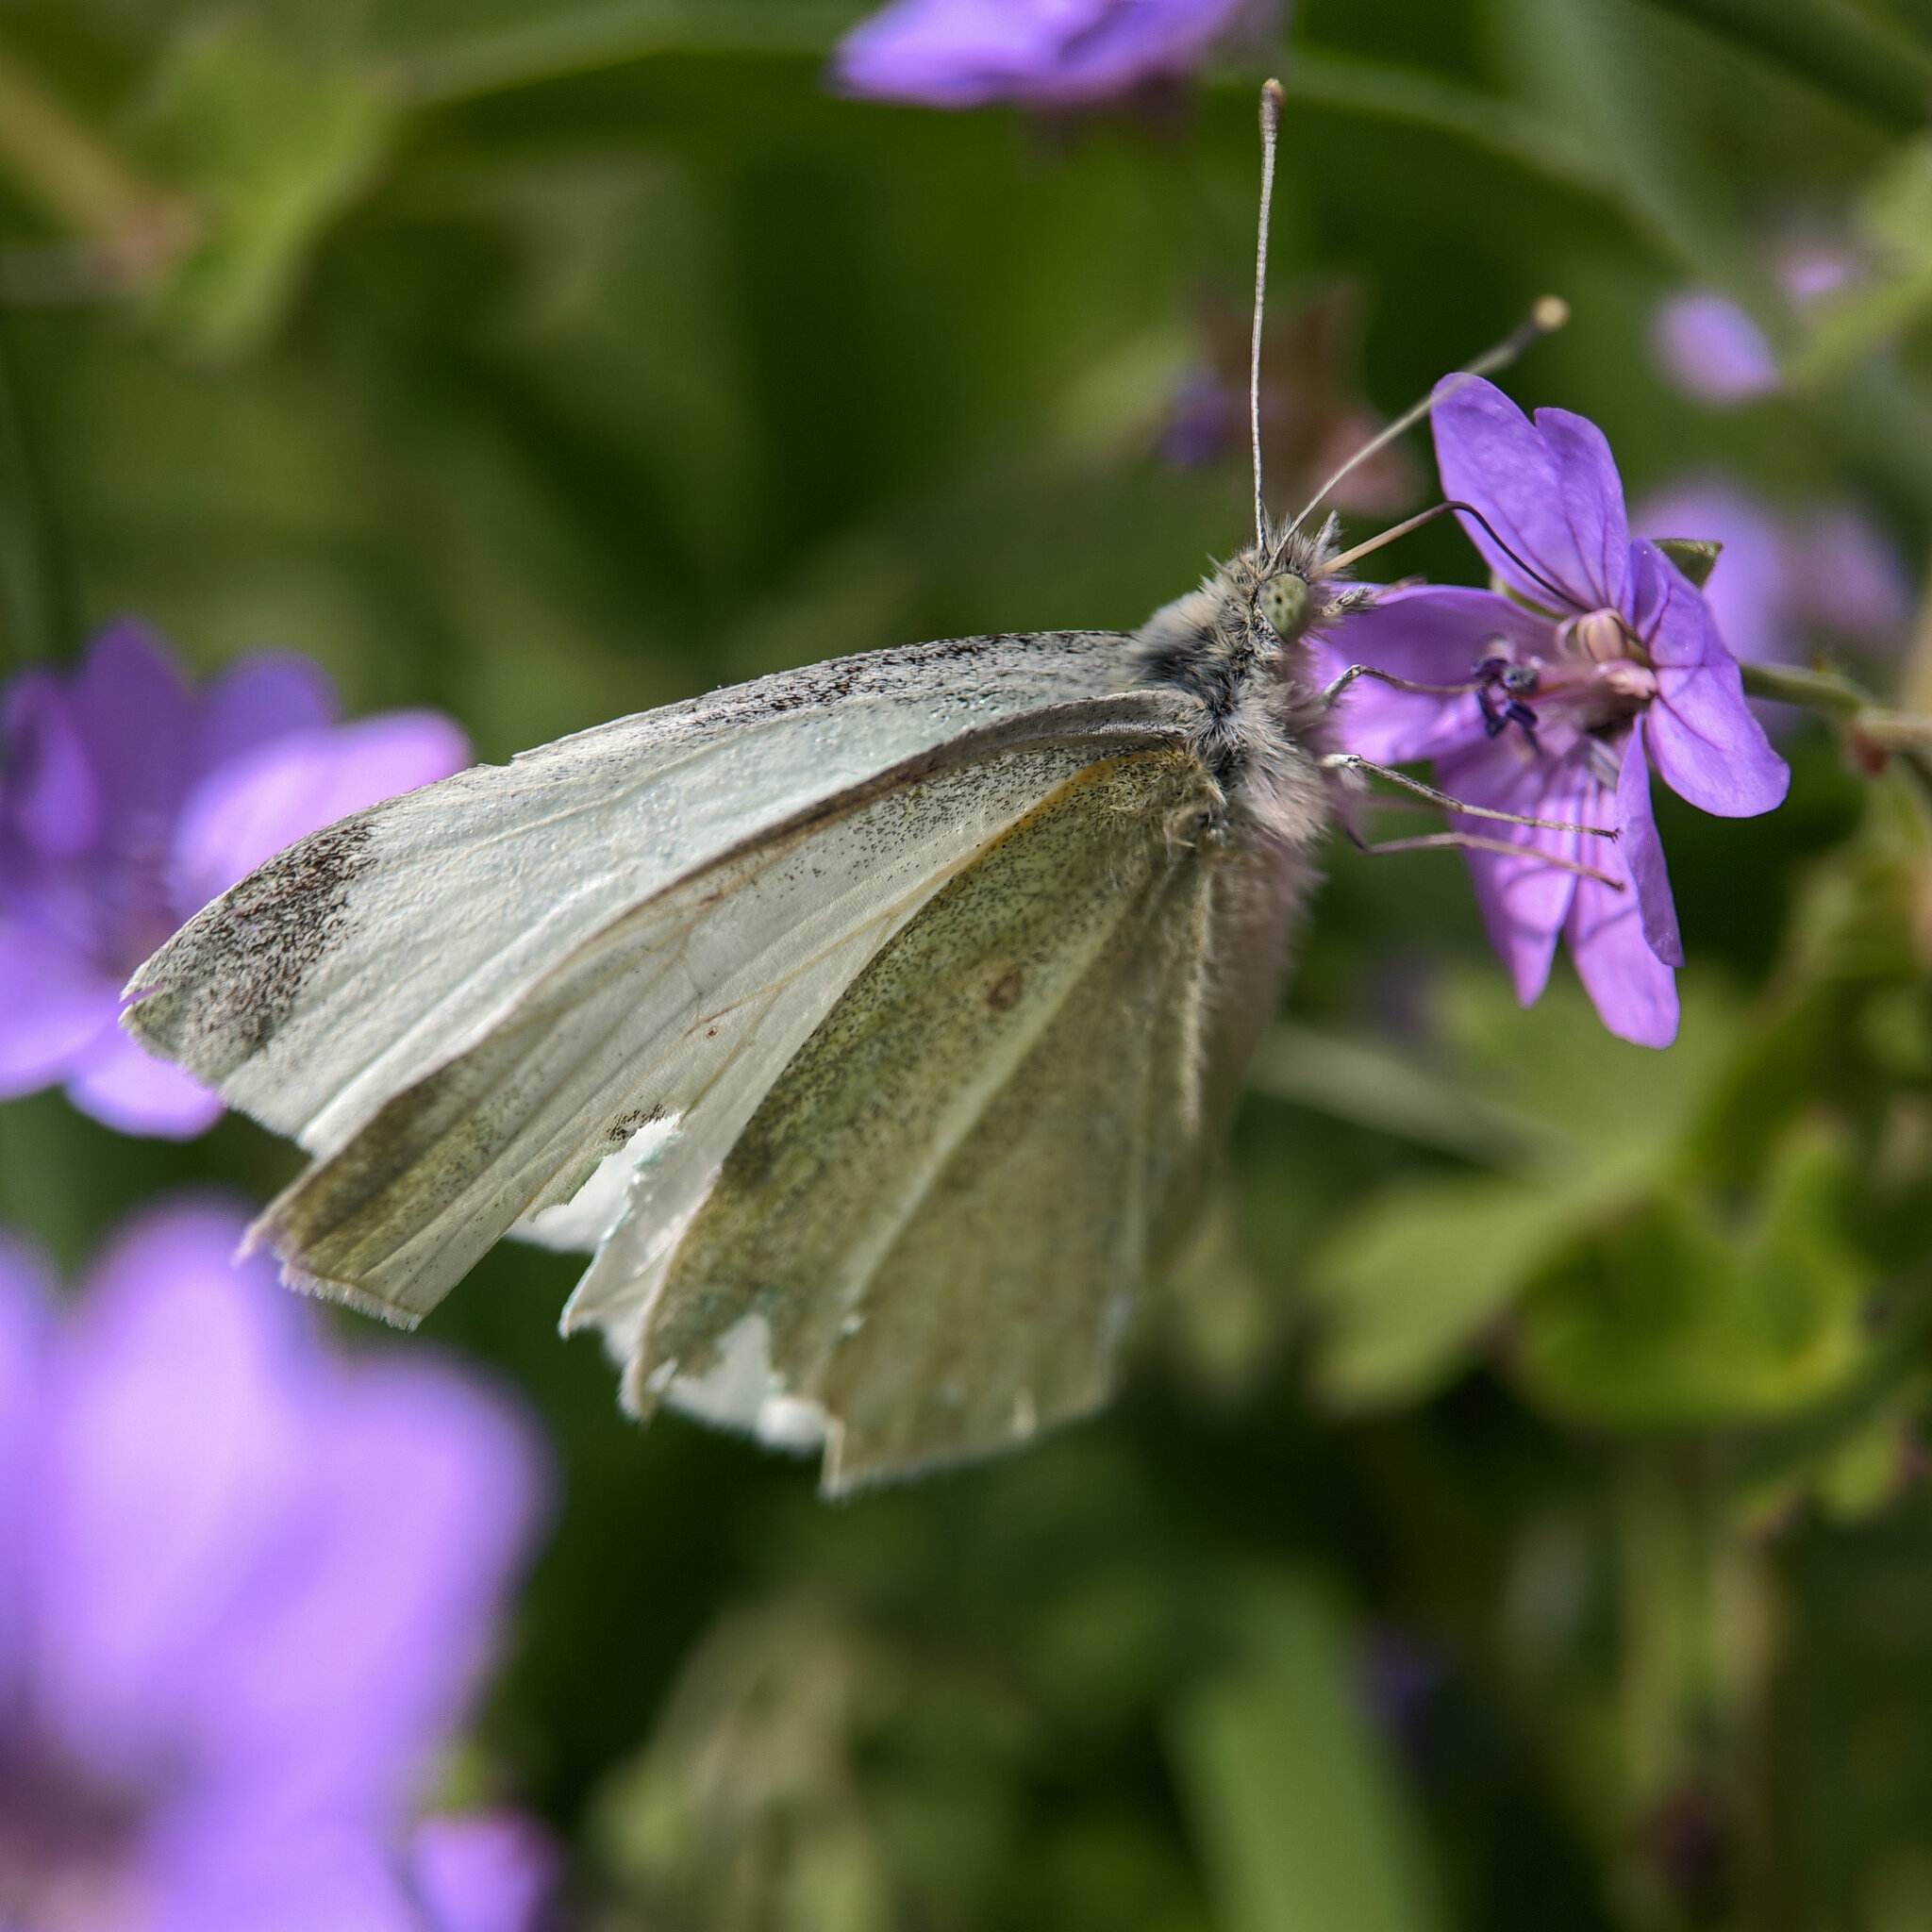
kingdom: Animalia
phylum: Arthropoda
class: Insecta
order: Lepidoptera
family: Pieridae
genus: Pieris
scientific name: Pieris rapae
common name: Small white
